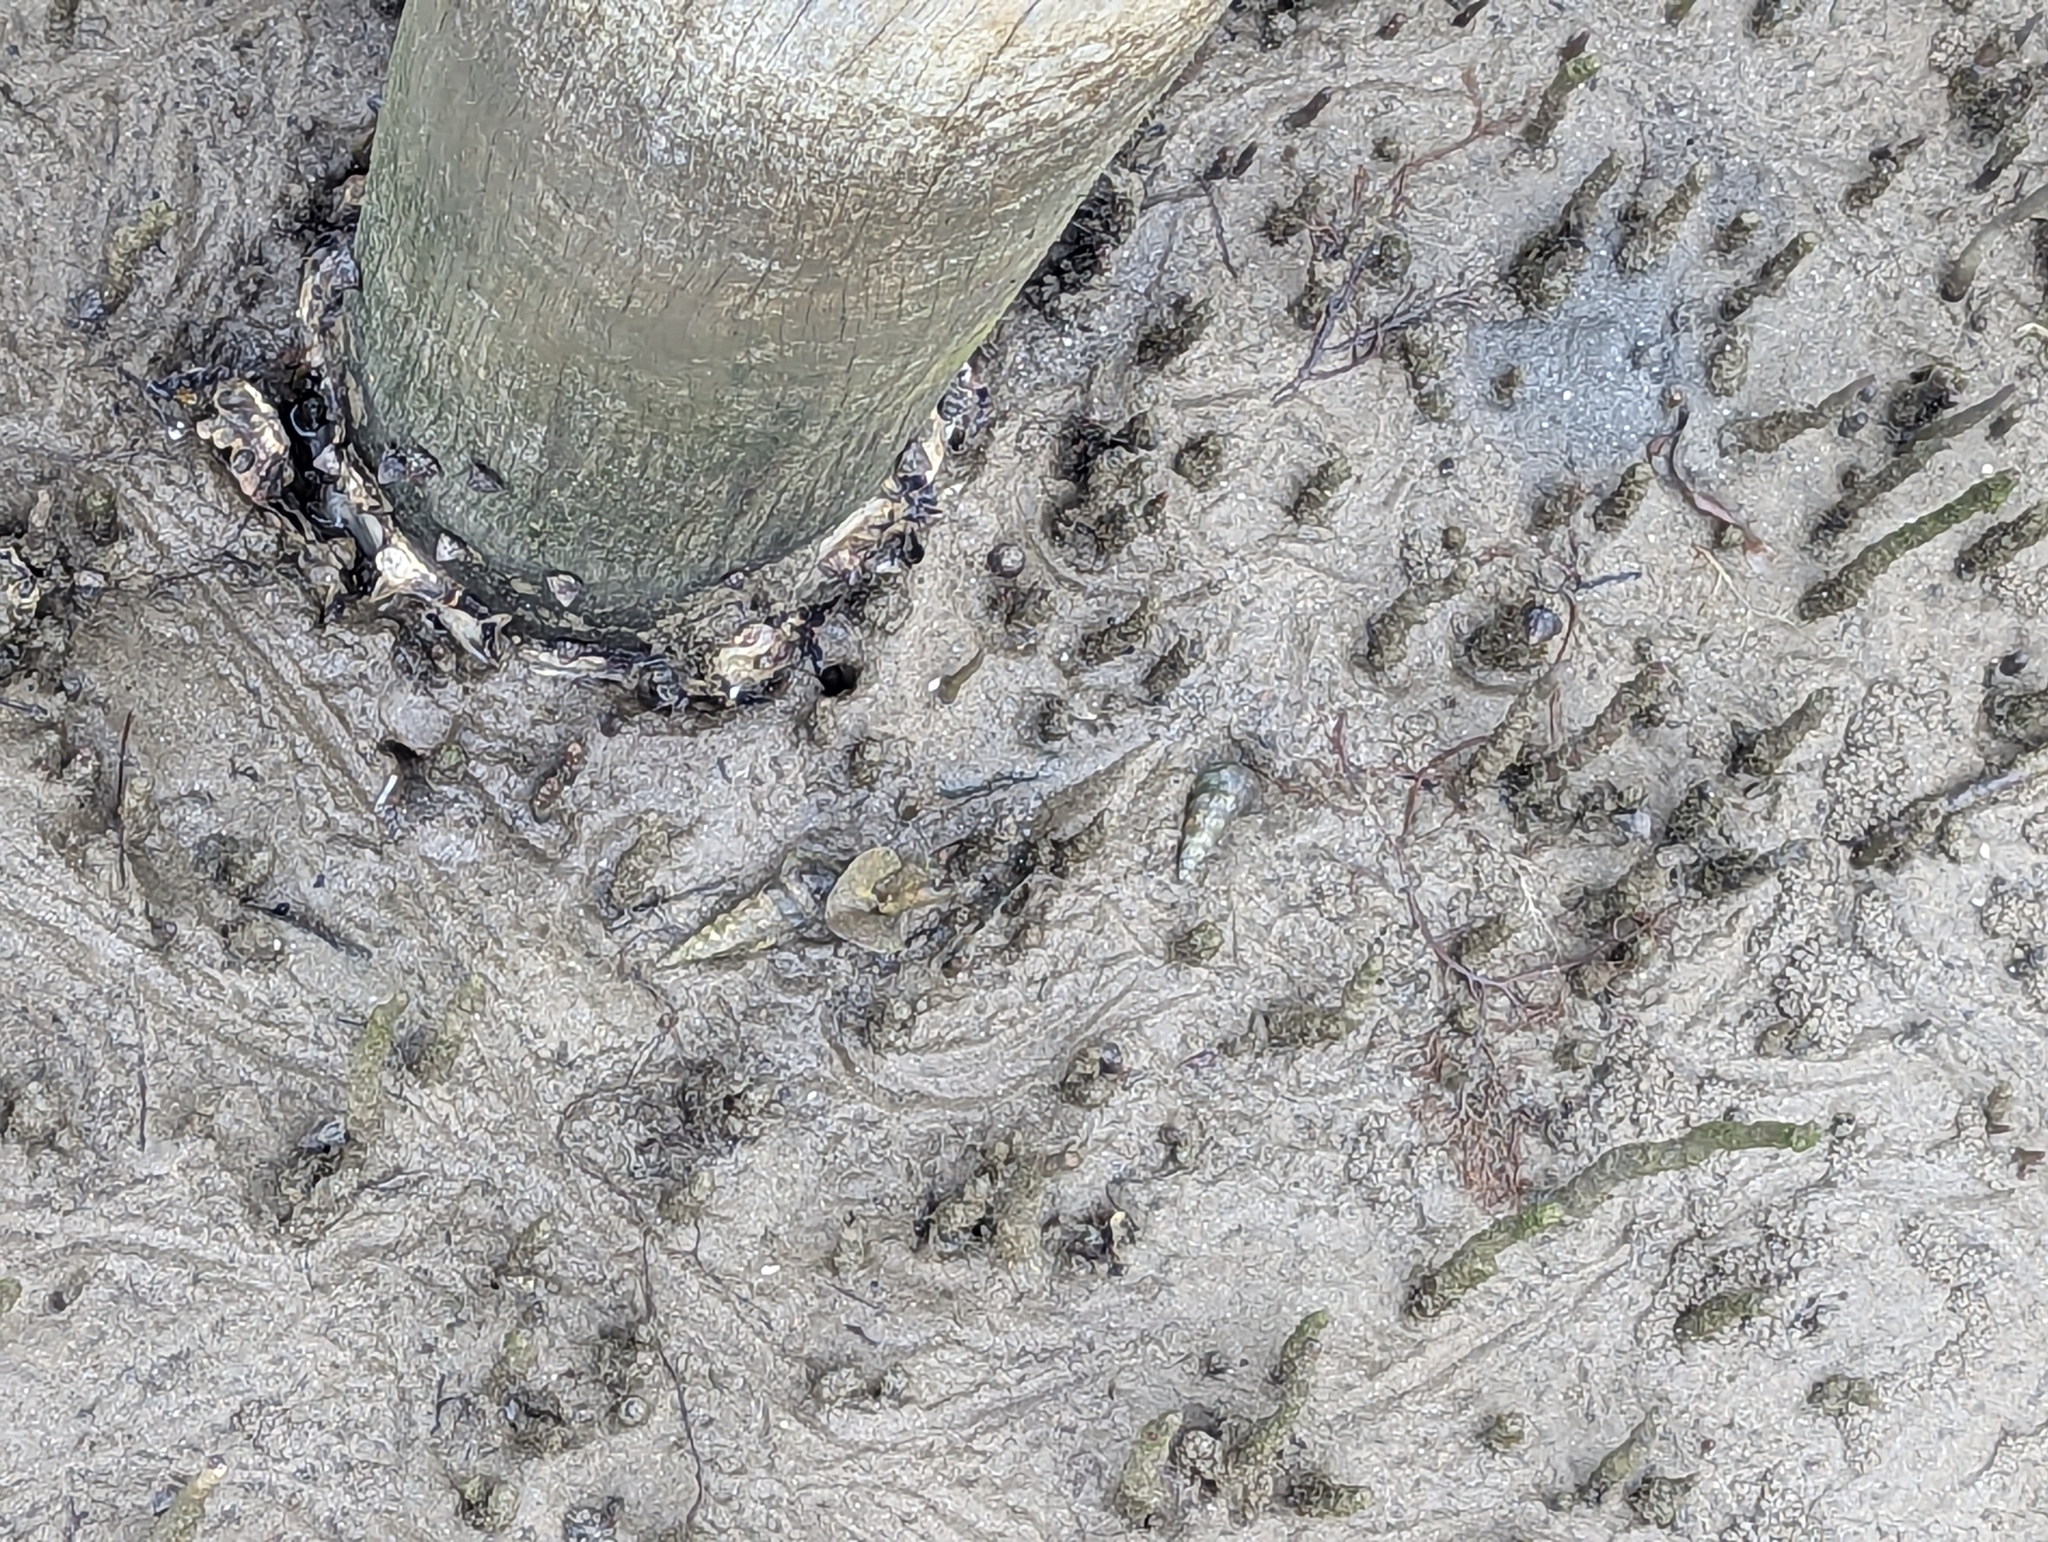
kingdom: Animalia
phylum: Mollusca
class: Gastropoda
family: Batillariidae
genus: Pyrazus
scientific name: Pyrazus ebeninus
